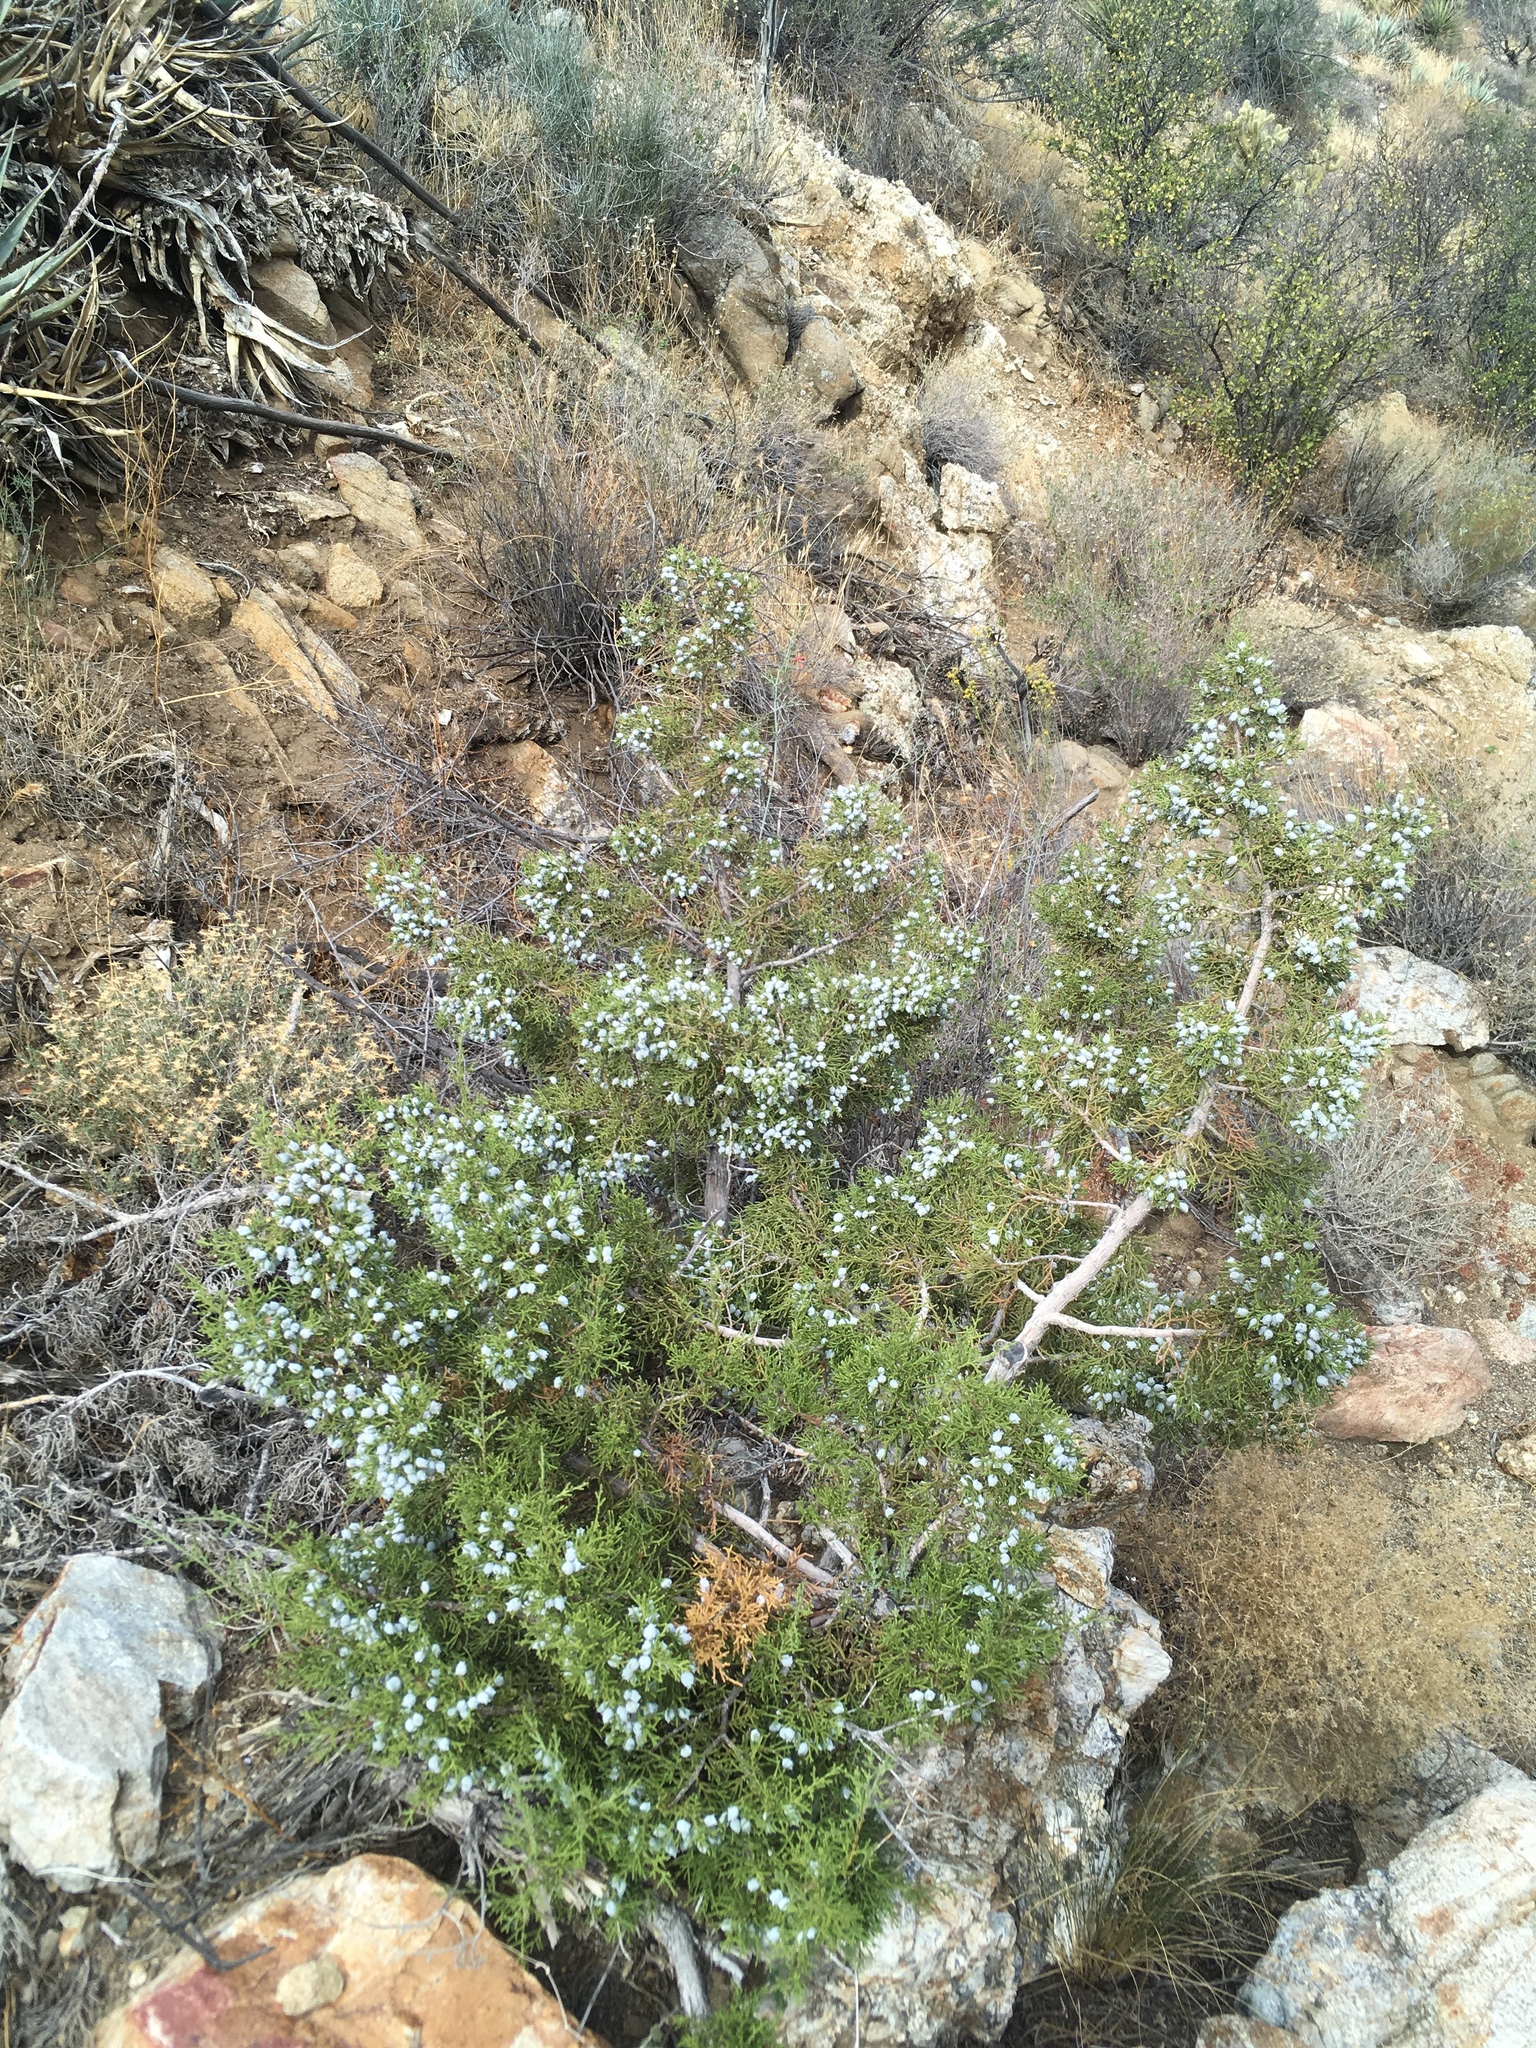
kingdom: Plantae
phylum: Tracheophyta
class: Pinopsida
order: Pinales
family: Cupressaceae
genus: Juniperus
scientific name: Juniperus californica
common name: California juniper
